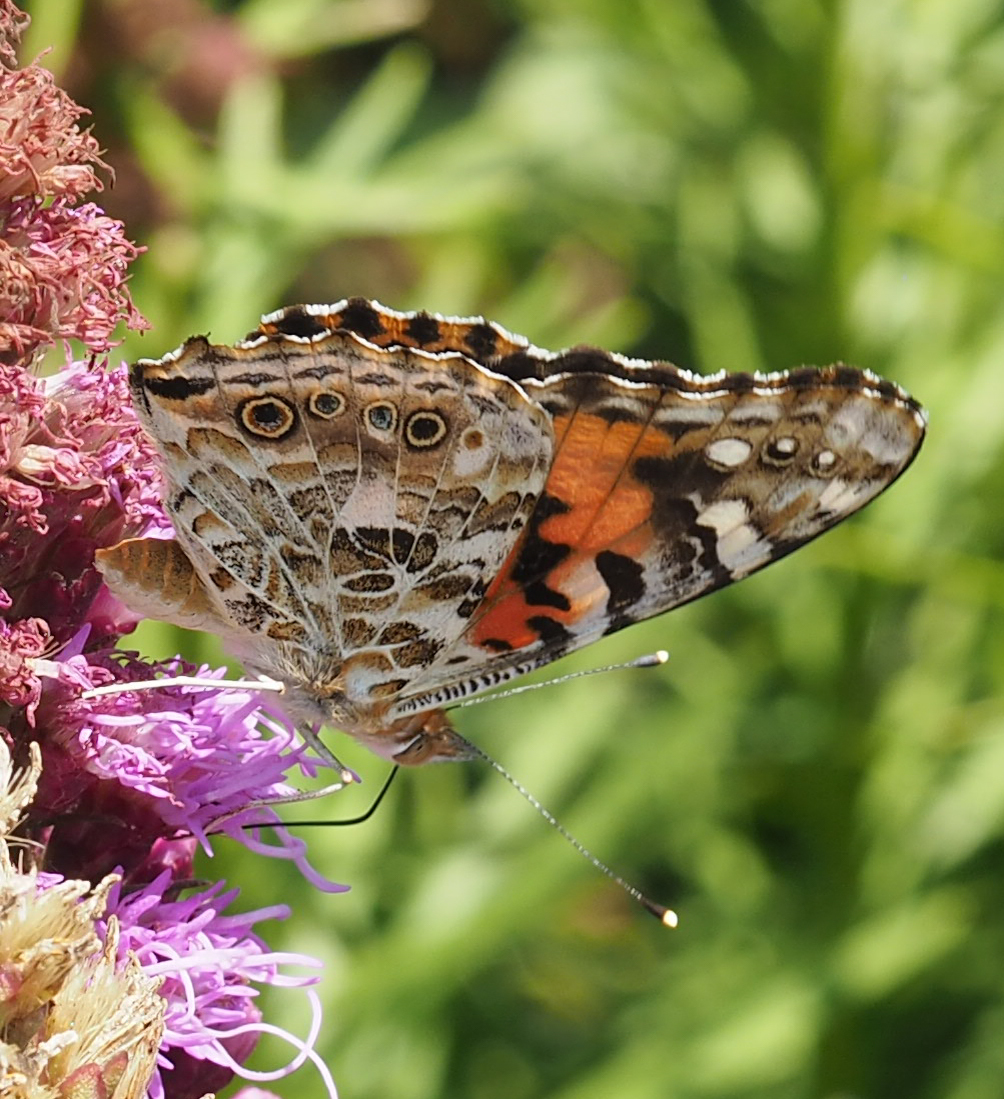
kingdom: Animalia
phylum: Arthropoda
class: Insecta
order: Lepidoptera
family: Nymphalidae
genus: Vanessa
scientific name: Vanessa cardui
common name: Painted lady
